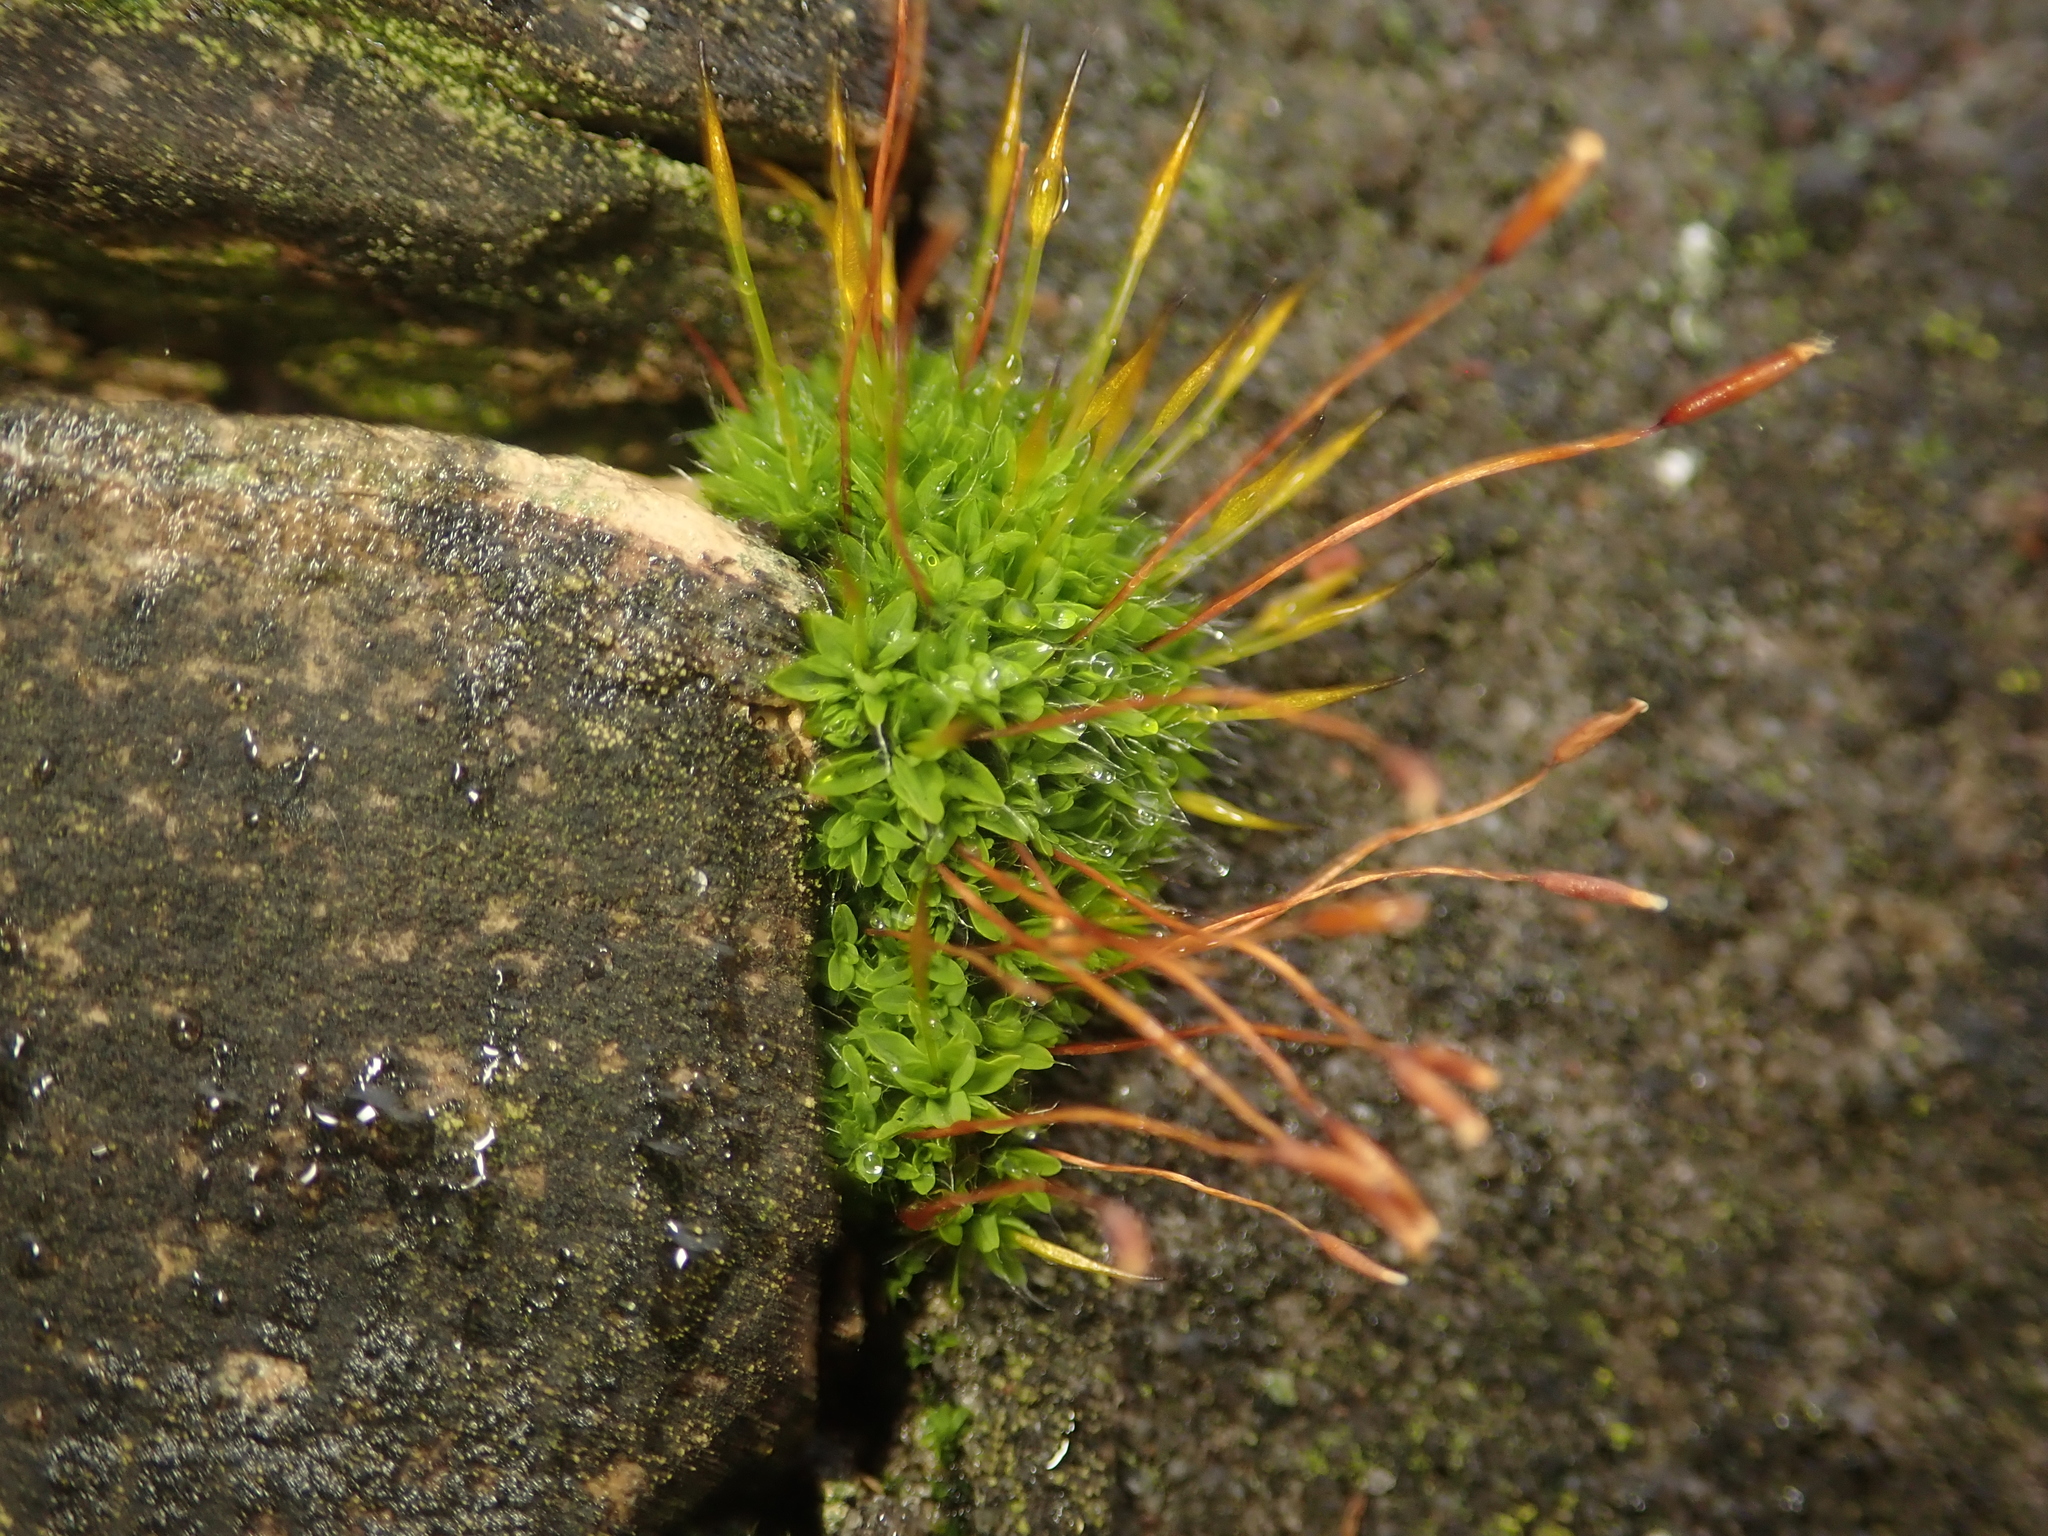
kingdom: Plantae
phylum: Bryophyta
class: Bryopsida
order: Pottiales
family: Pottiaceae
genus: Tortula
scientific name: Tortula muralis
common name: Wall screw-moss
